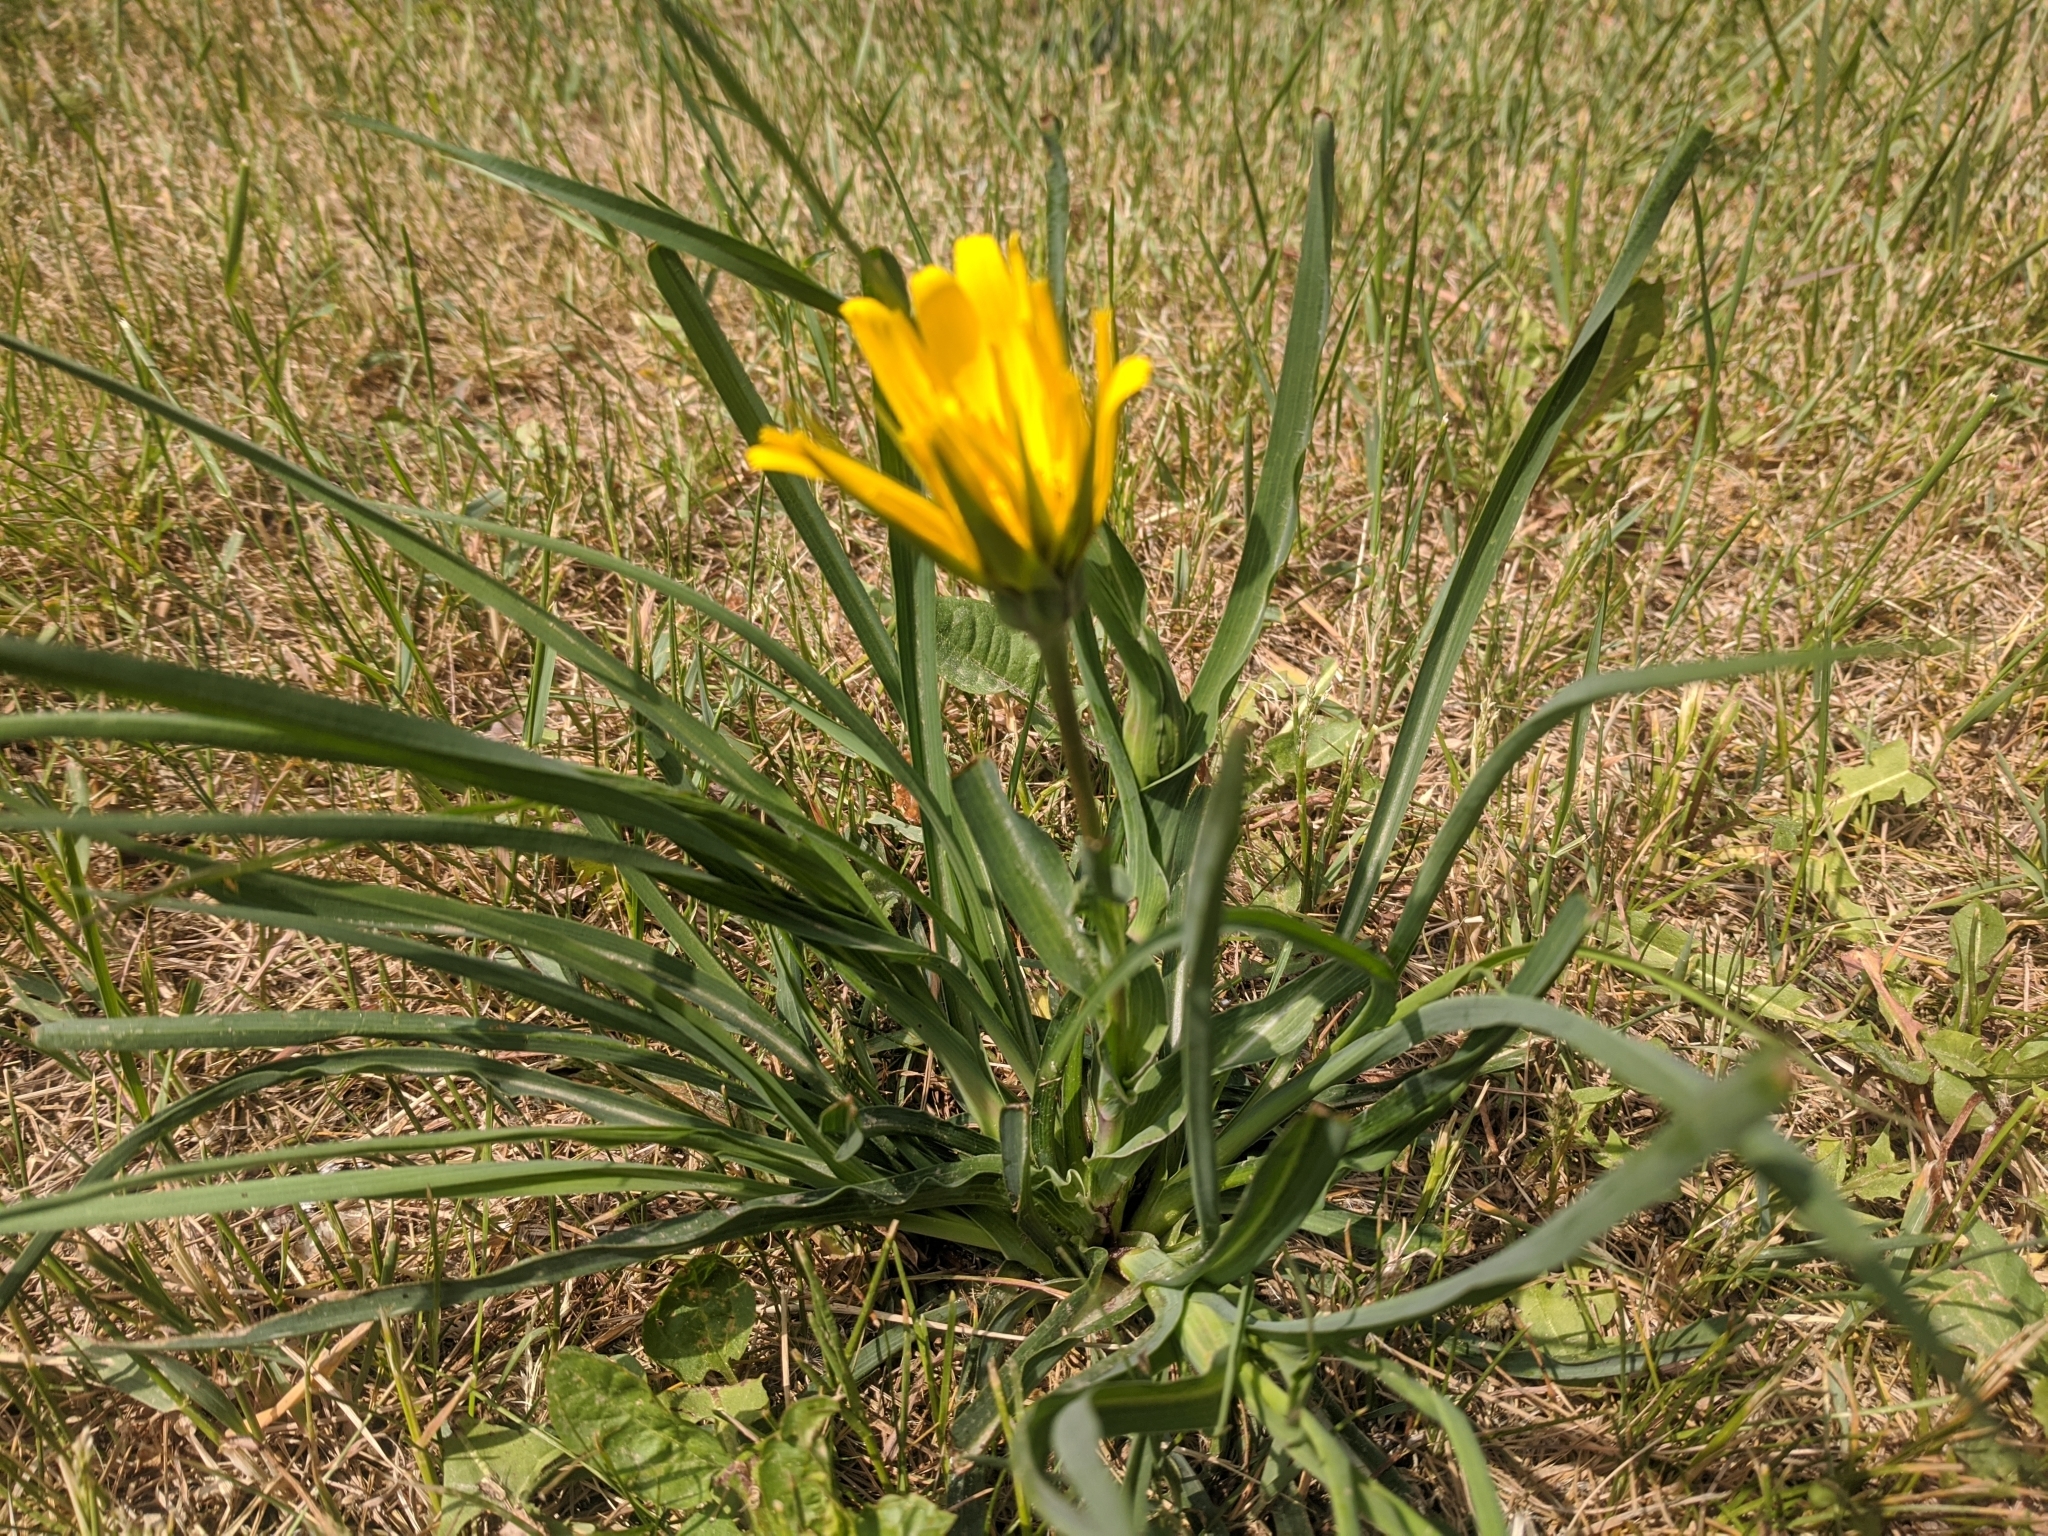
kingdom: Plantae
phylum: Tracheophyta
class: Magnoliopsida
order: Asterales
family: Asteraceae
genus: Tragopogon
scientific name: Tragopogon orientalis
